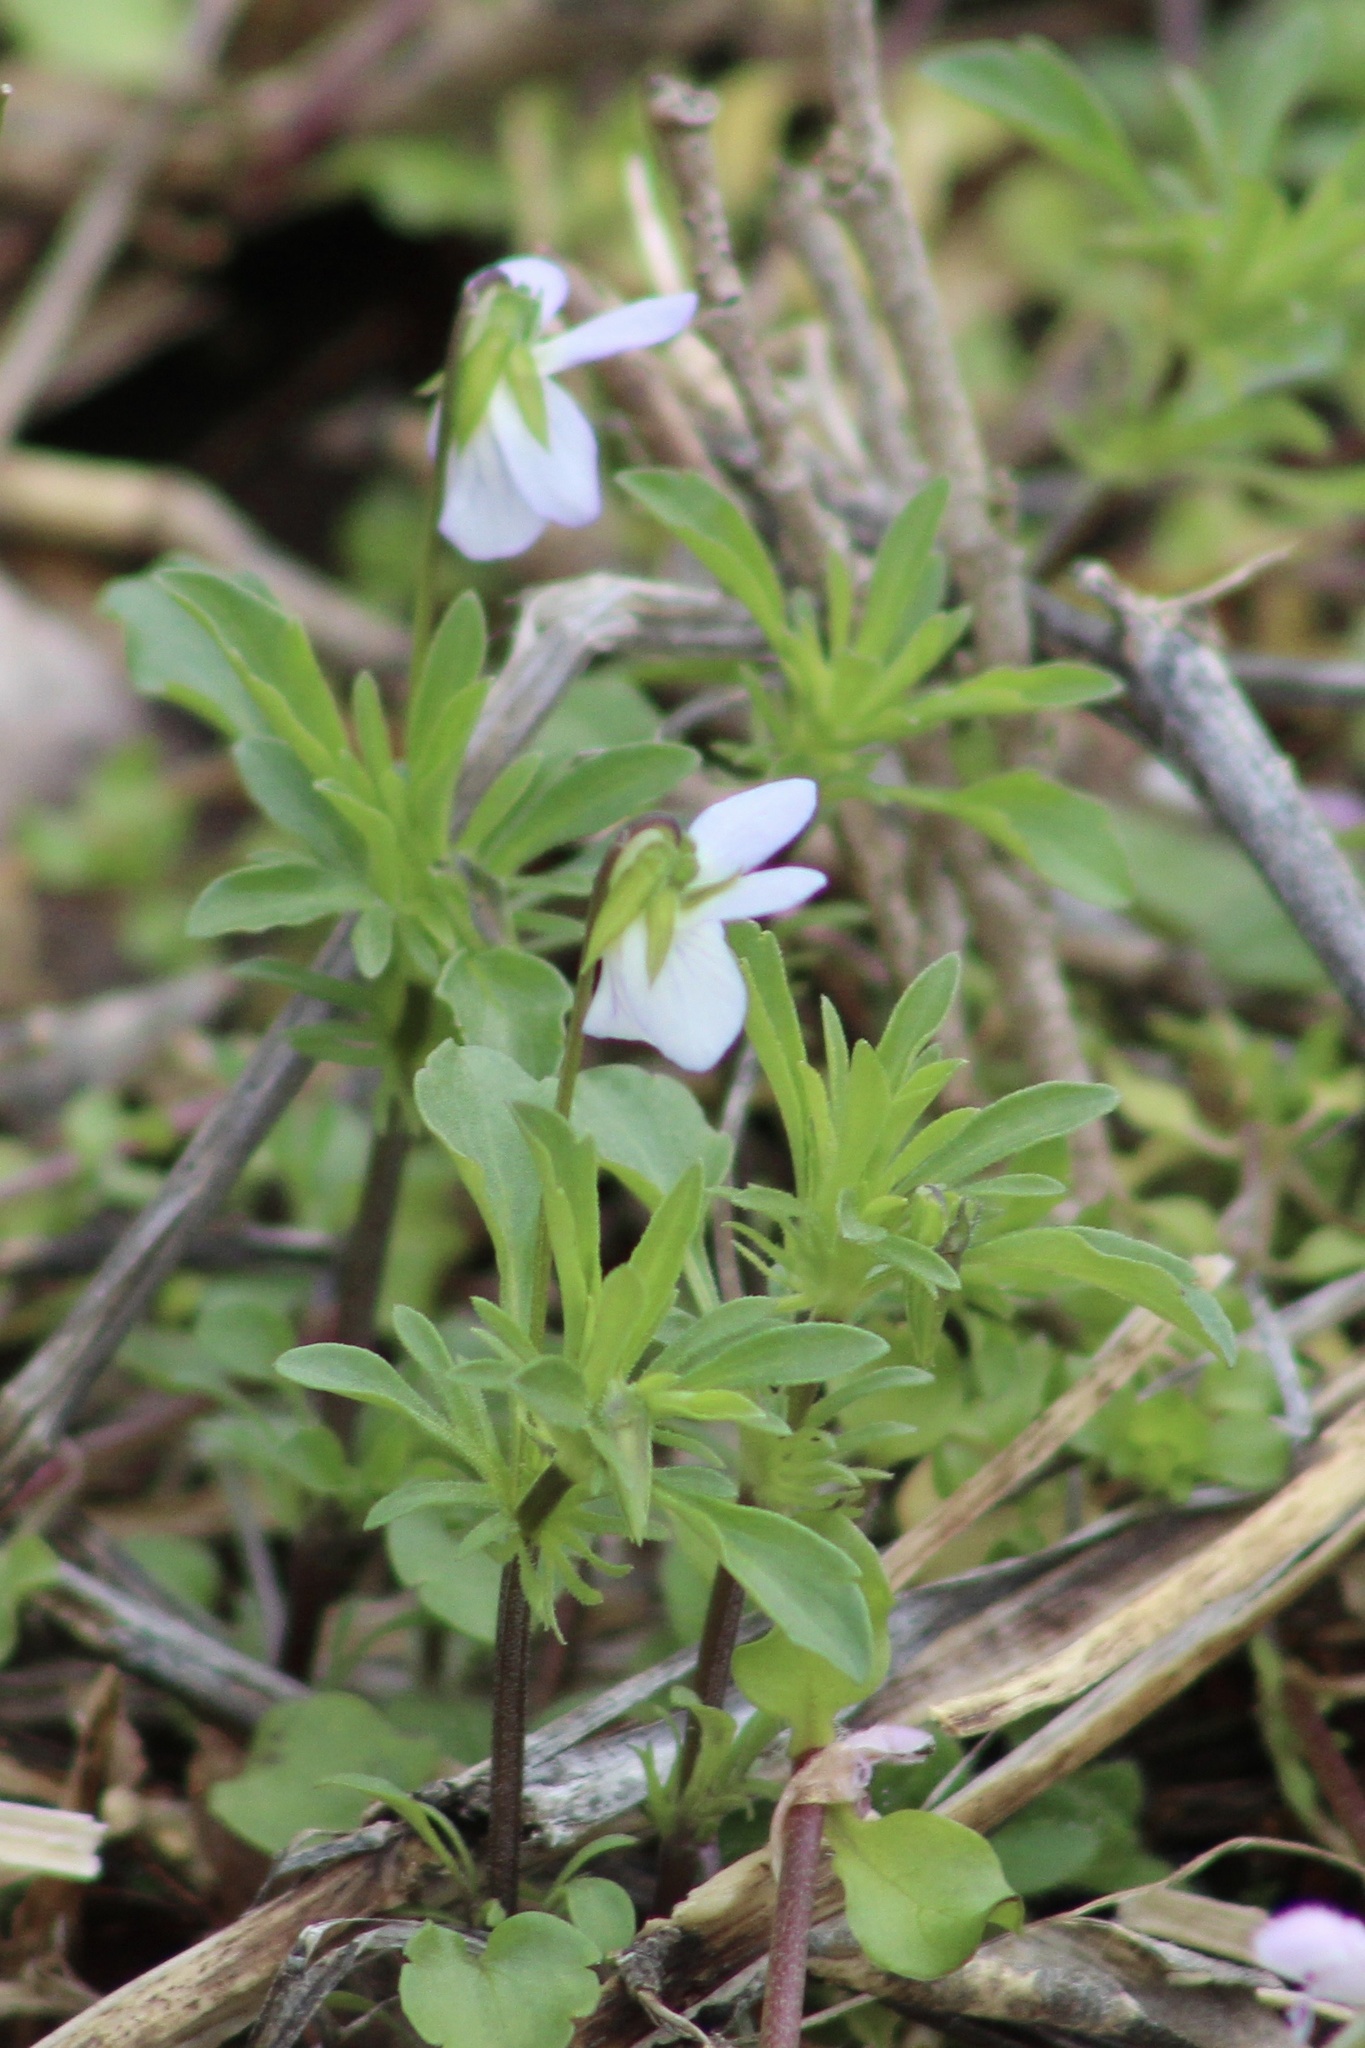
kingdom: Plantae
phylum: Tracheophyta
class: Magnoliopsida
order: Malpighiales
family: Violaceae
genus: Viola
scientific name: Viola rafinesquei
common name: American field pansy
